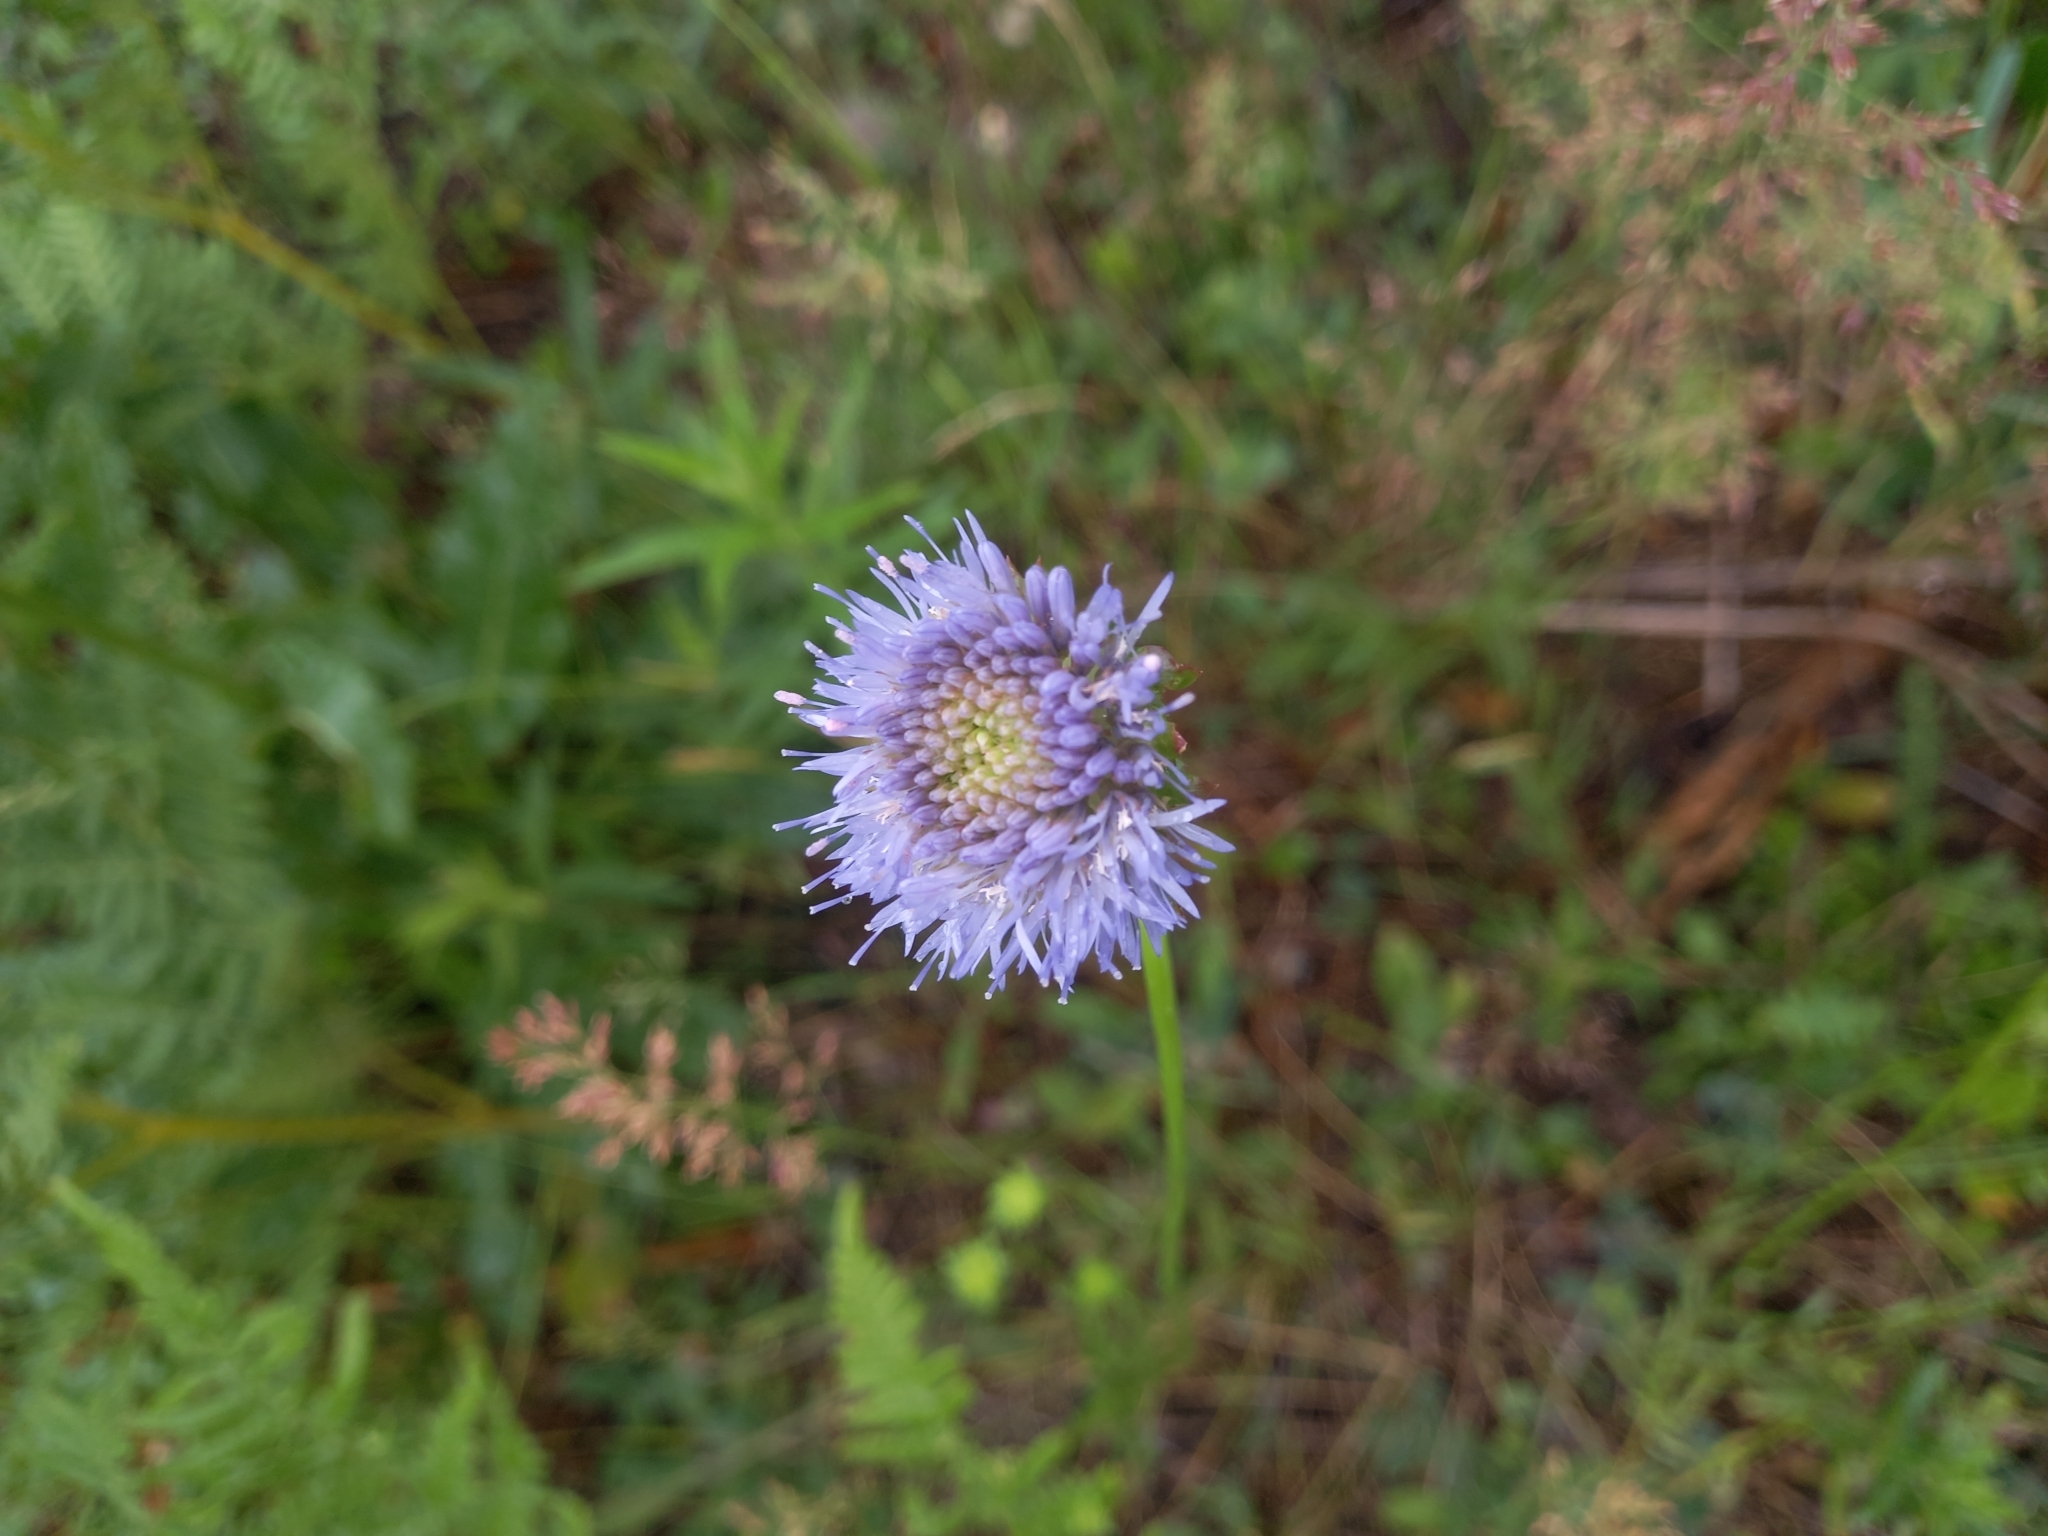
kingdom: Plantae
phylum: Tracheophyta
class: Magnoliopsida
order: Asterales
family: Campanulaceae
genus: Jasione
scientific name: Jasione montana
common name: Sheep's-bit
